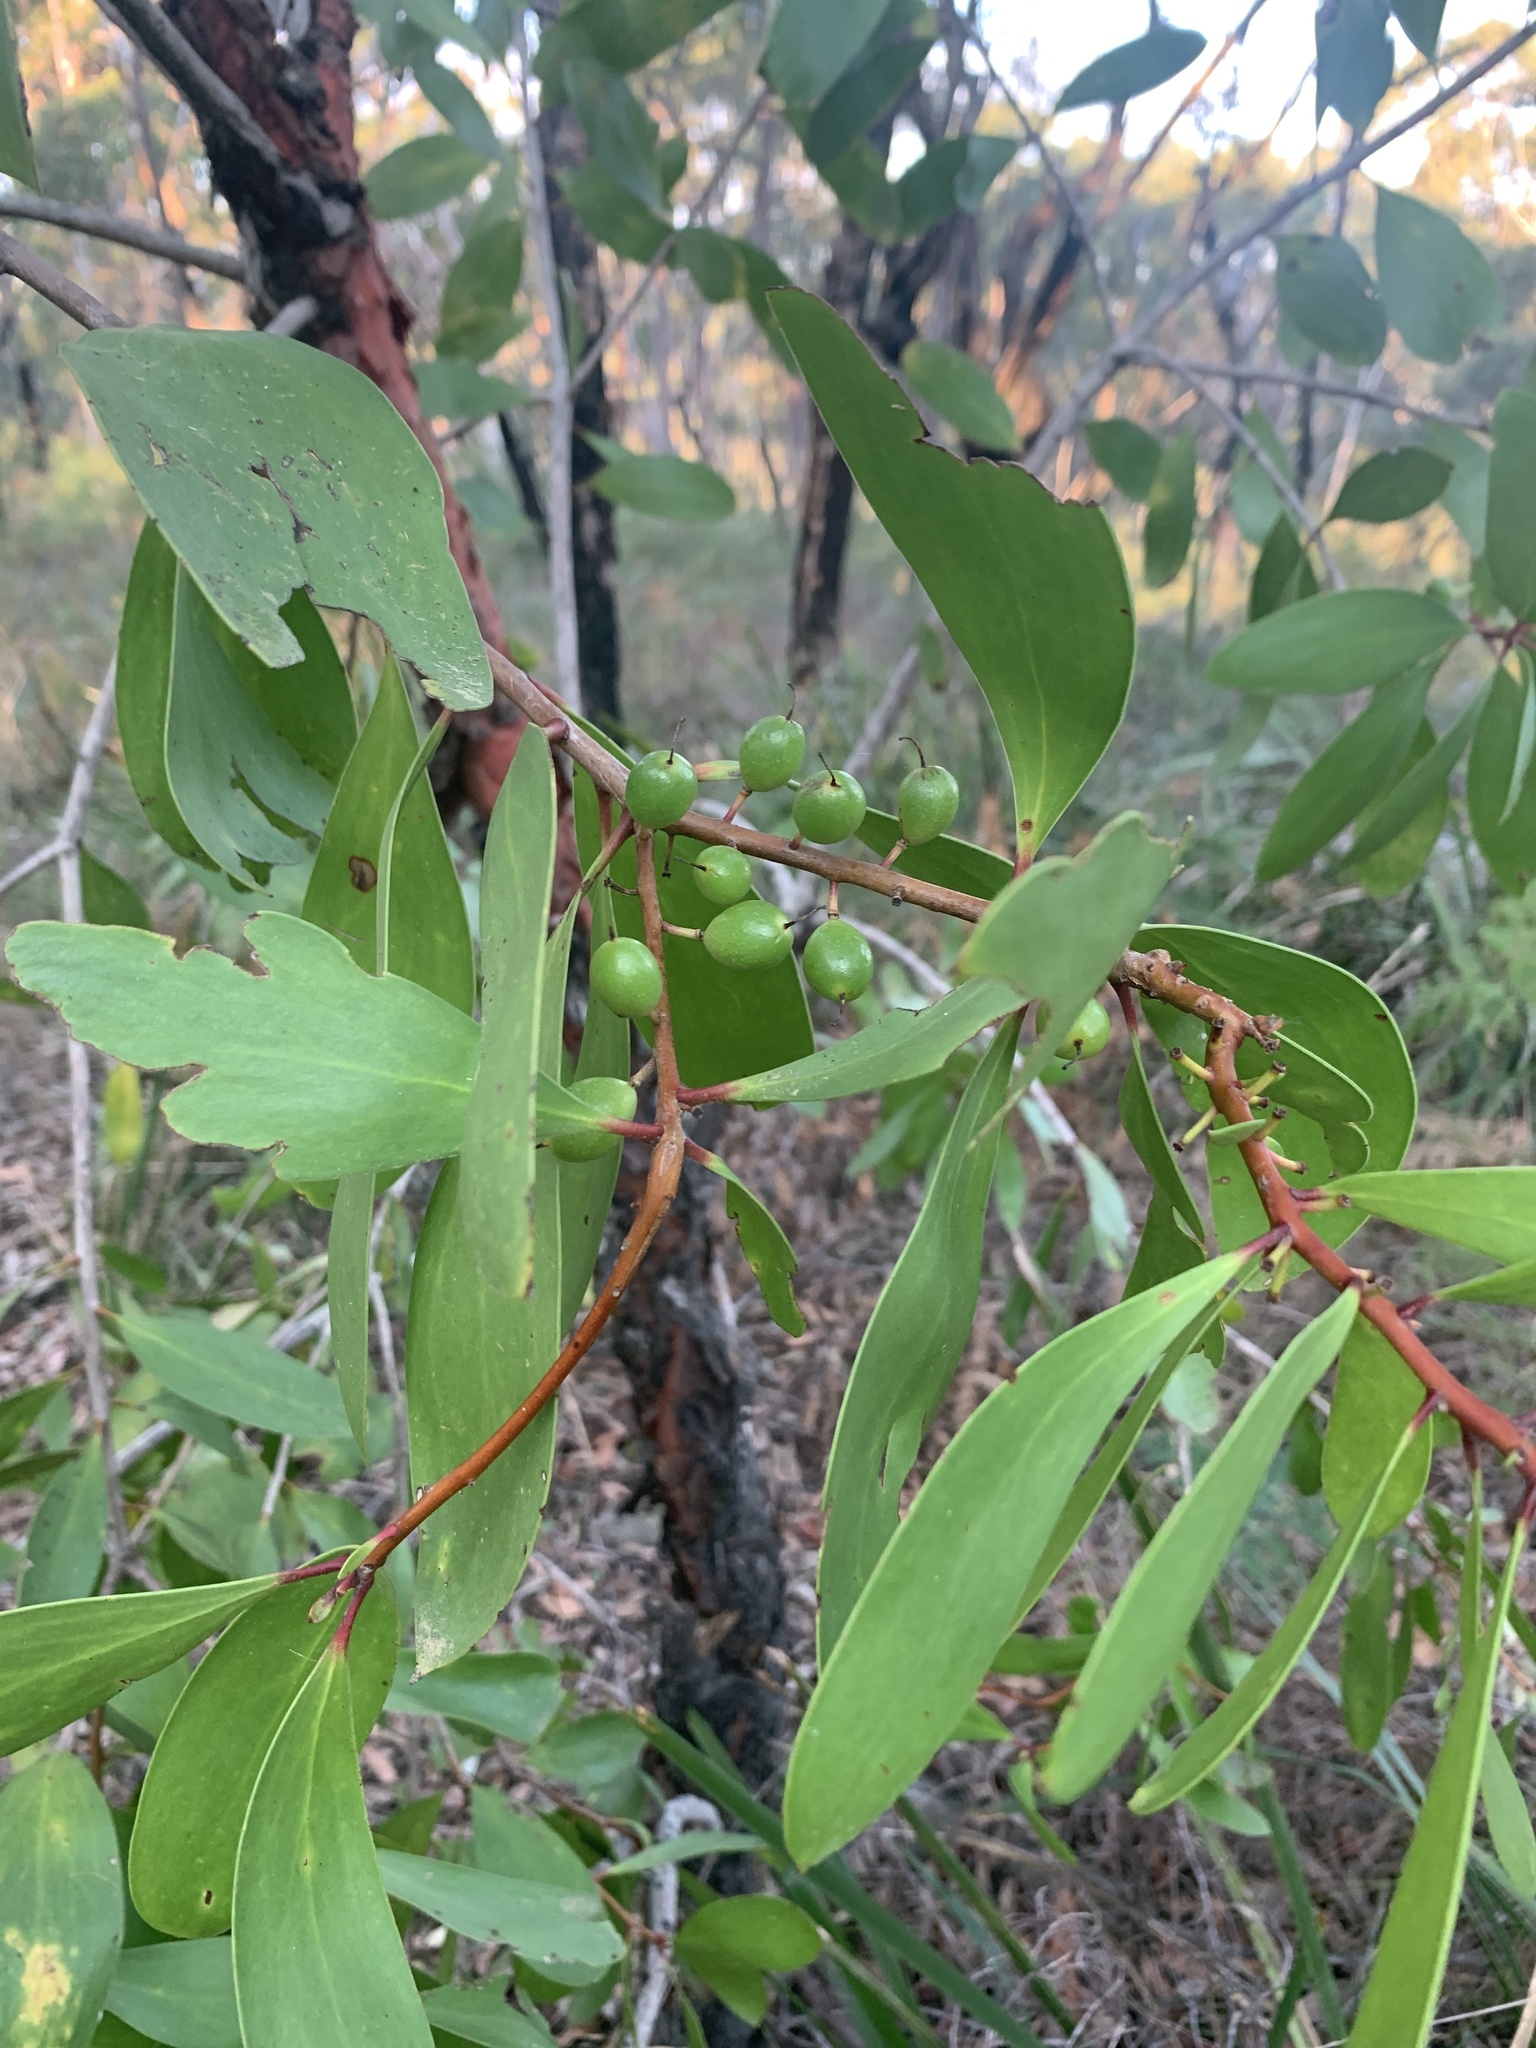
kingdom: Plantae
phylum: Tracheophyta
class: Magnoliopsida
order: Proteales
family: Proteaceae
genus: Persoonia
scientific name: Persoonia levis
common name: Smooth geebung
